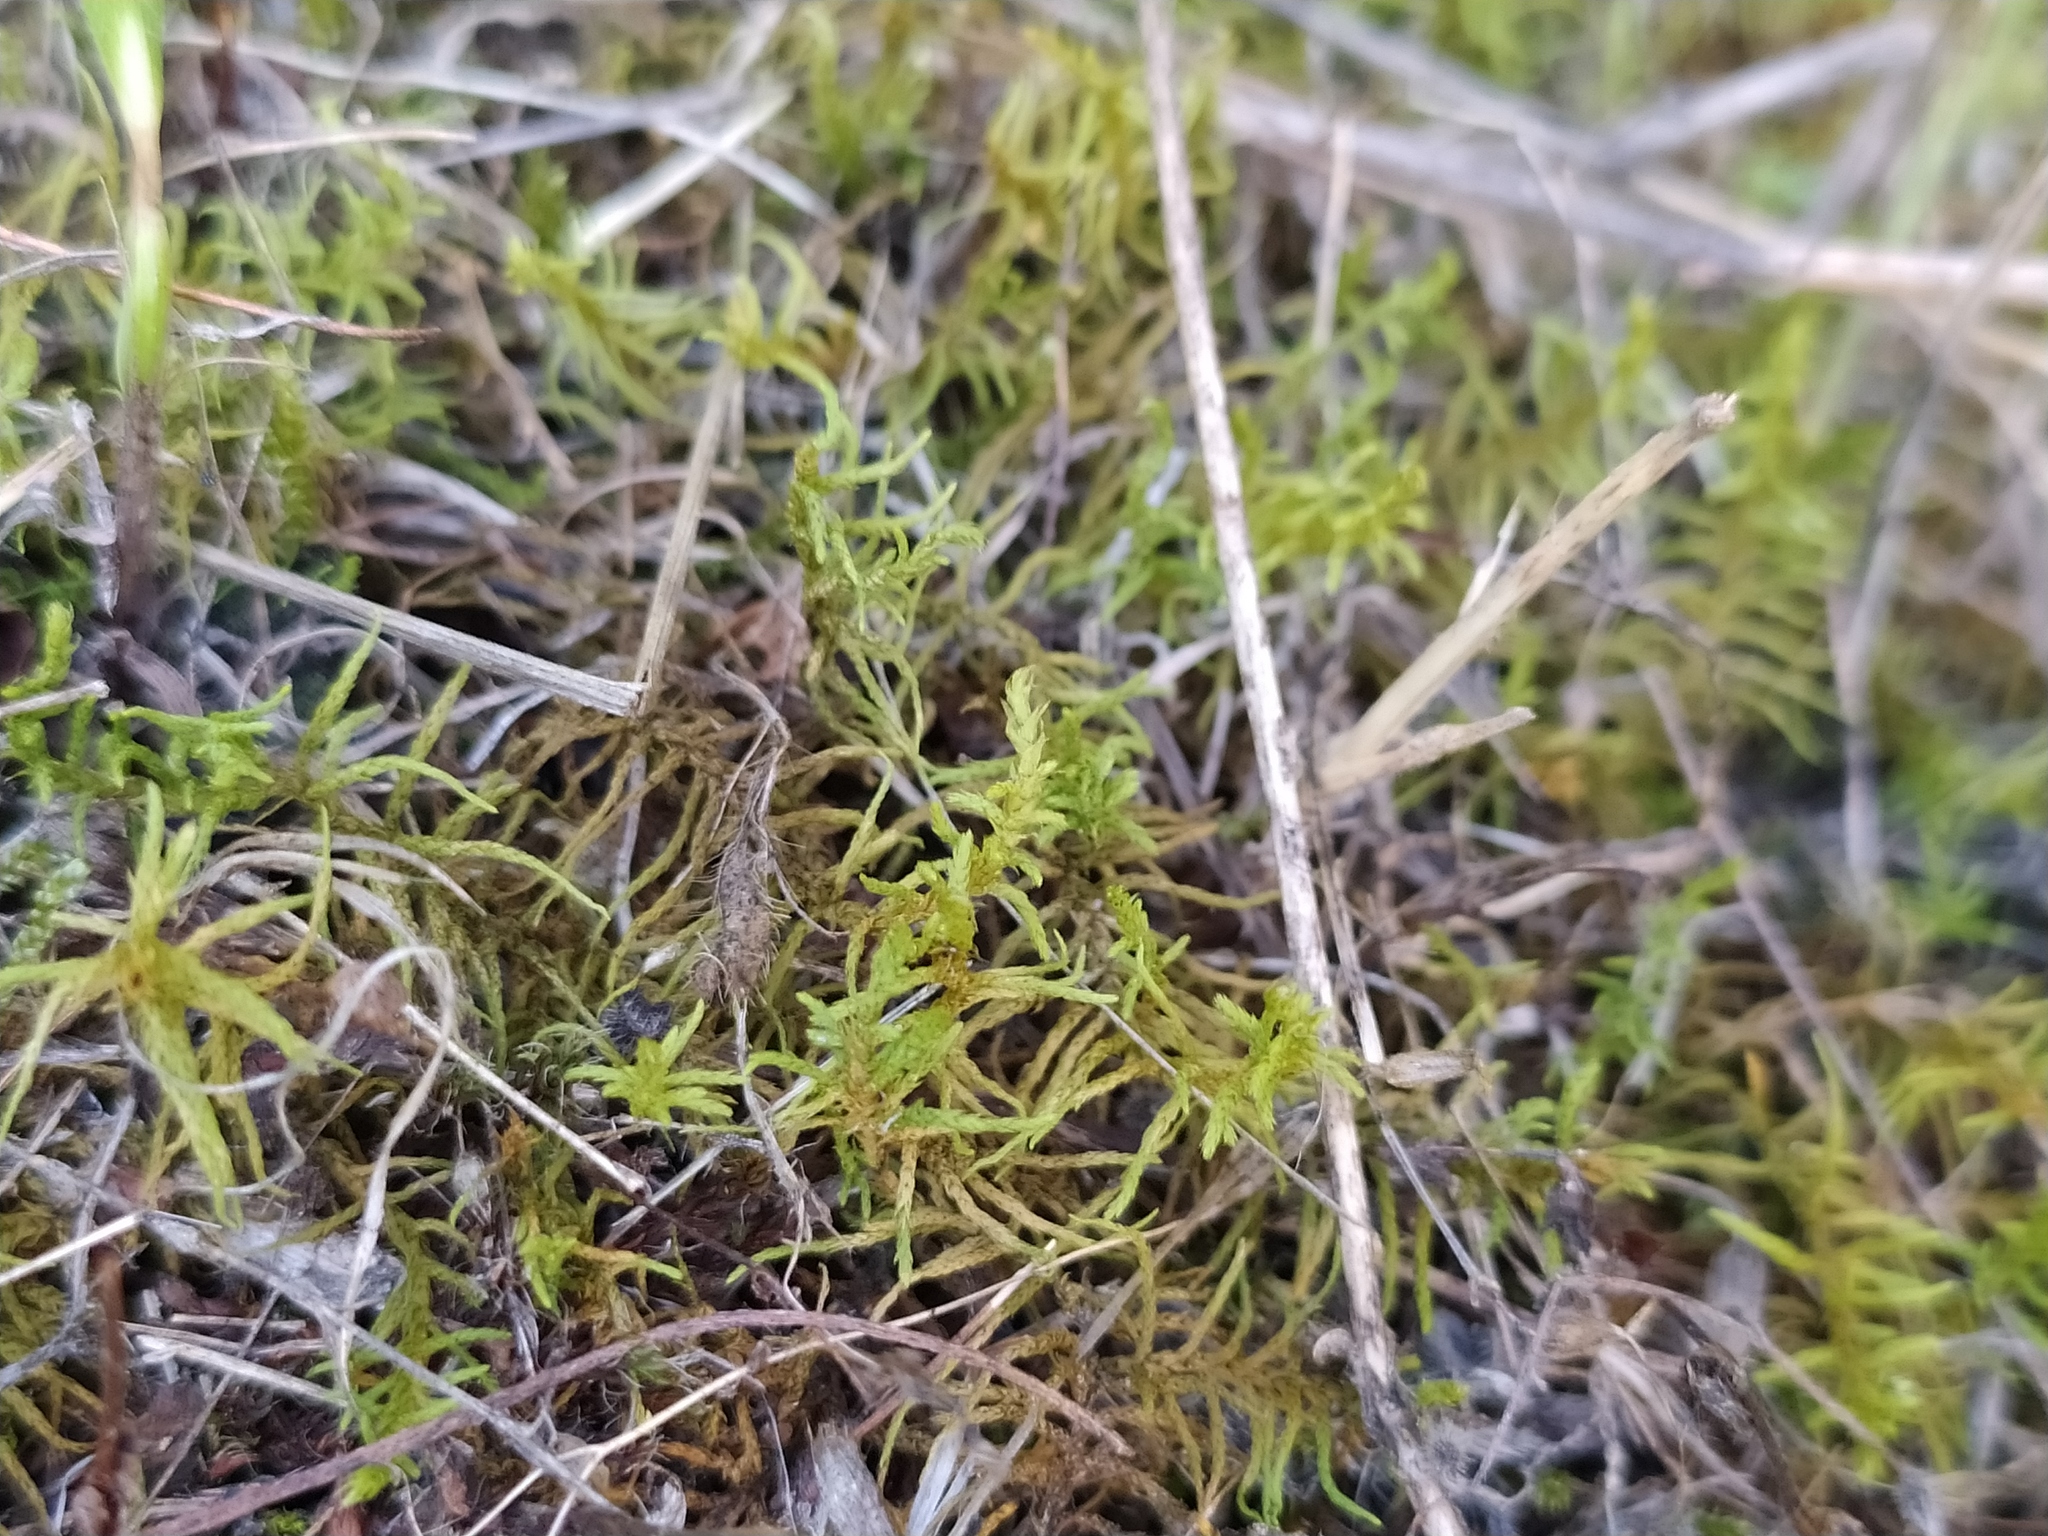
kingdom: Plantae
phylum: Bryophyta
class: Bryopsida
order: Hypnales
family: Thuidiaceae
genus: Abietinella
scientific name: Abietinella abietina
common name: Wiry fern moss
